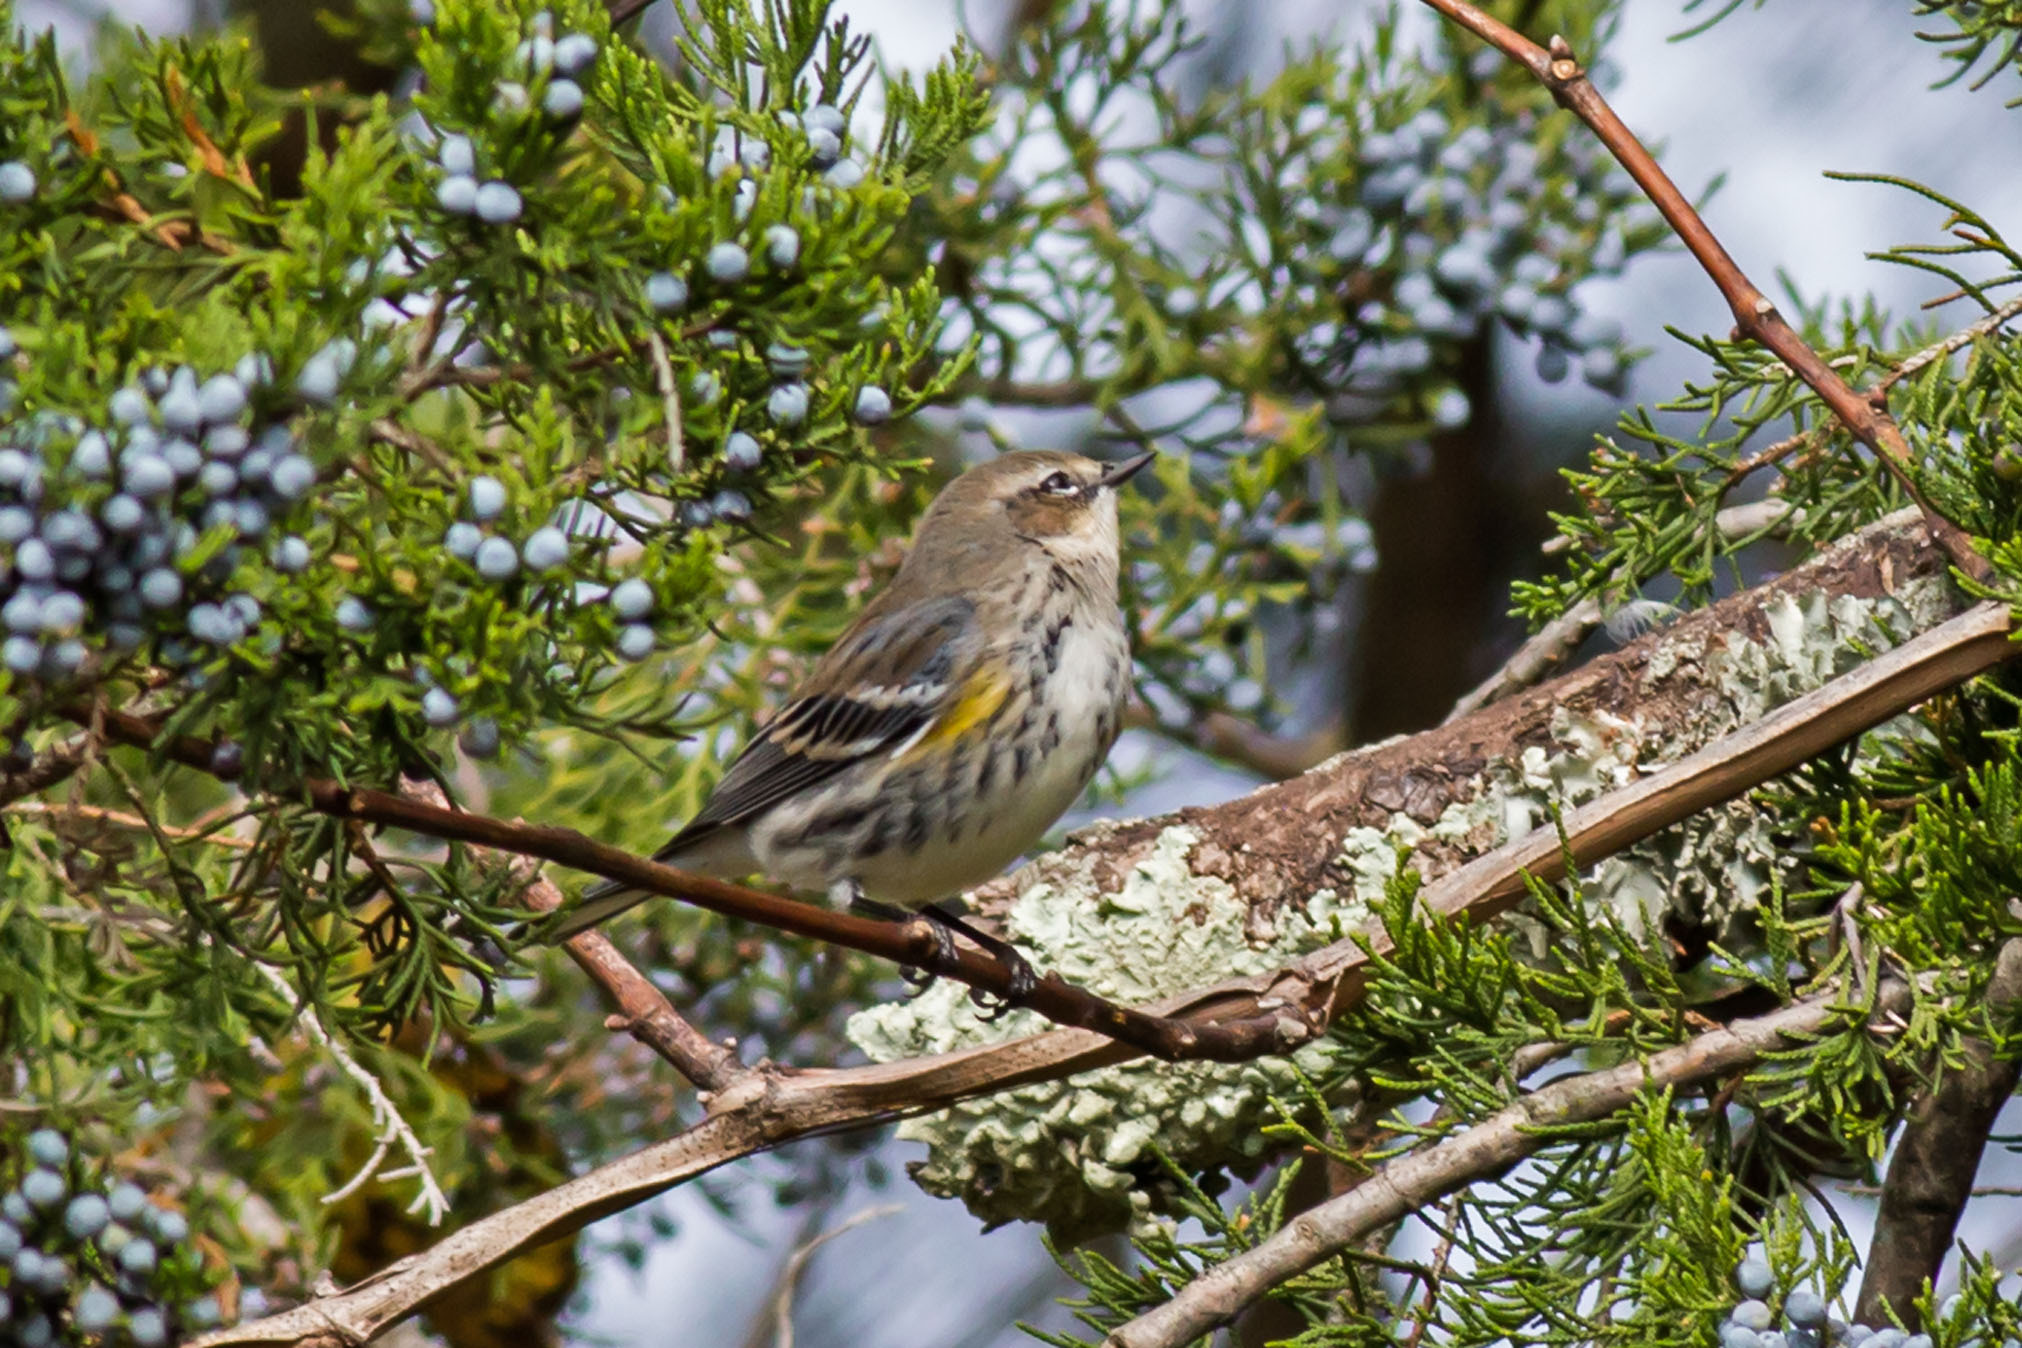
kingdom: Animalia
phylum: Chordata
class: Aves
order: Passeriformes
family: Parulidae
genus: Setophaga
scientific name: Setophaga coronata
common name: Myrtle warbler
